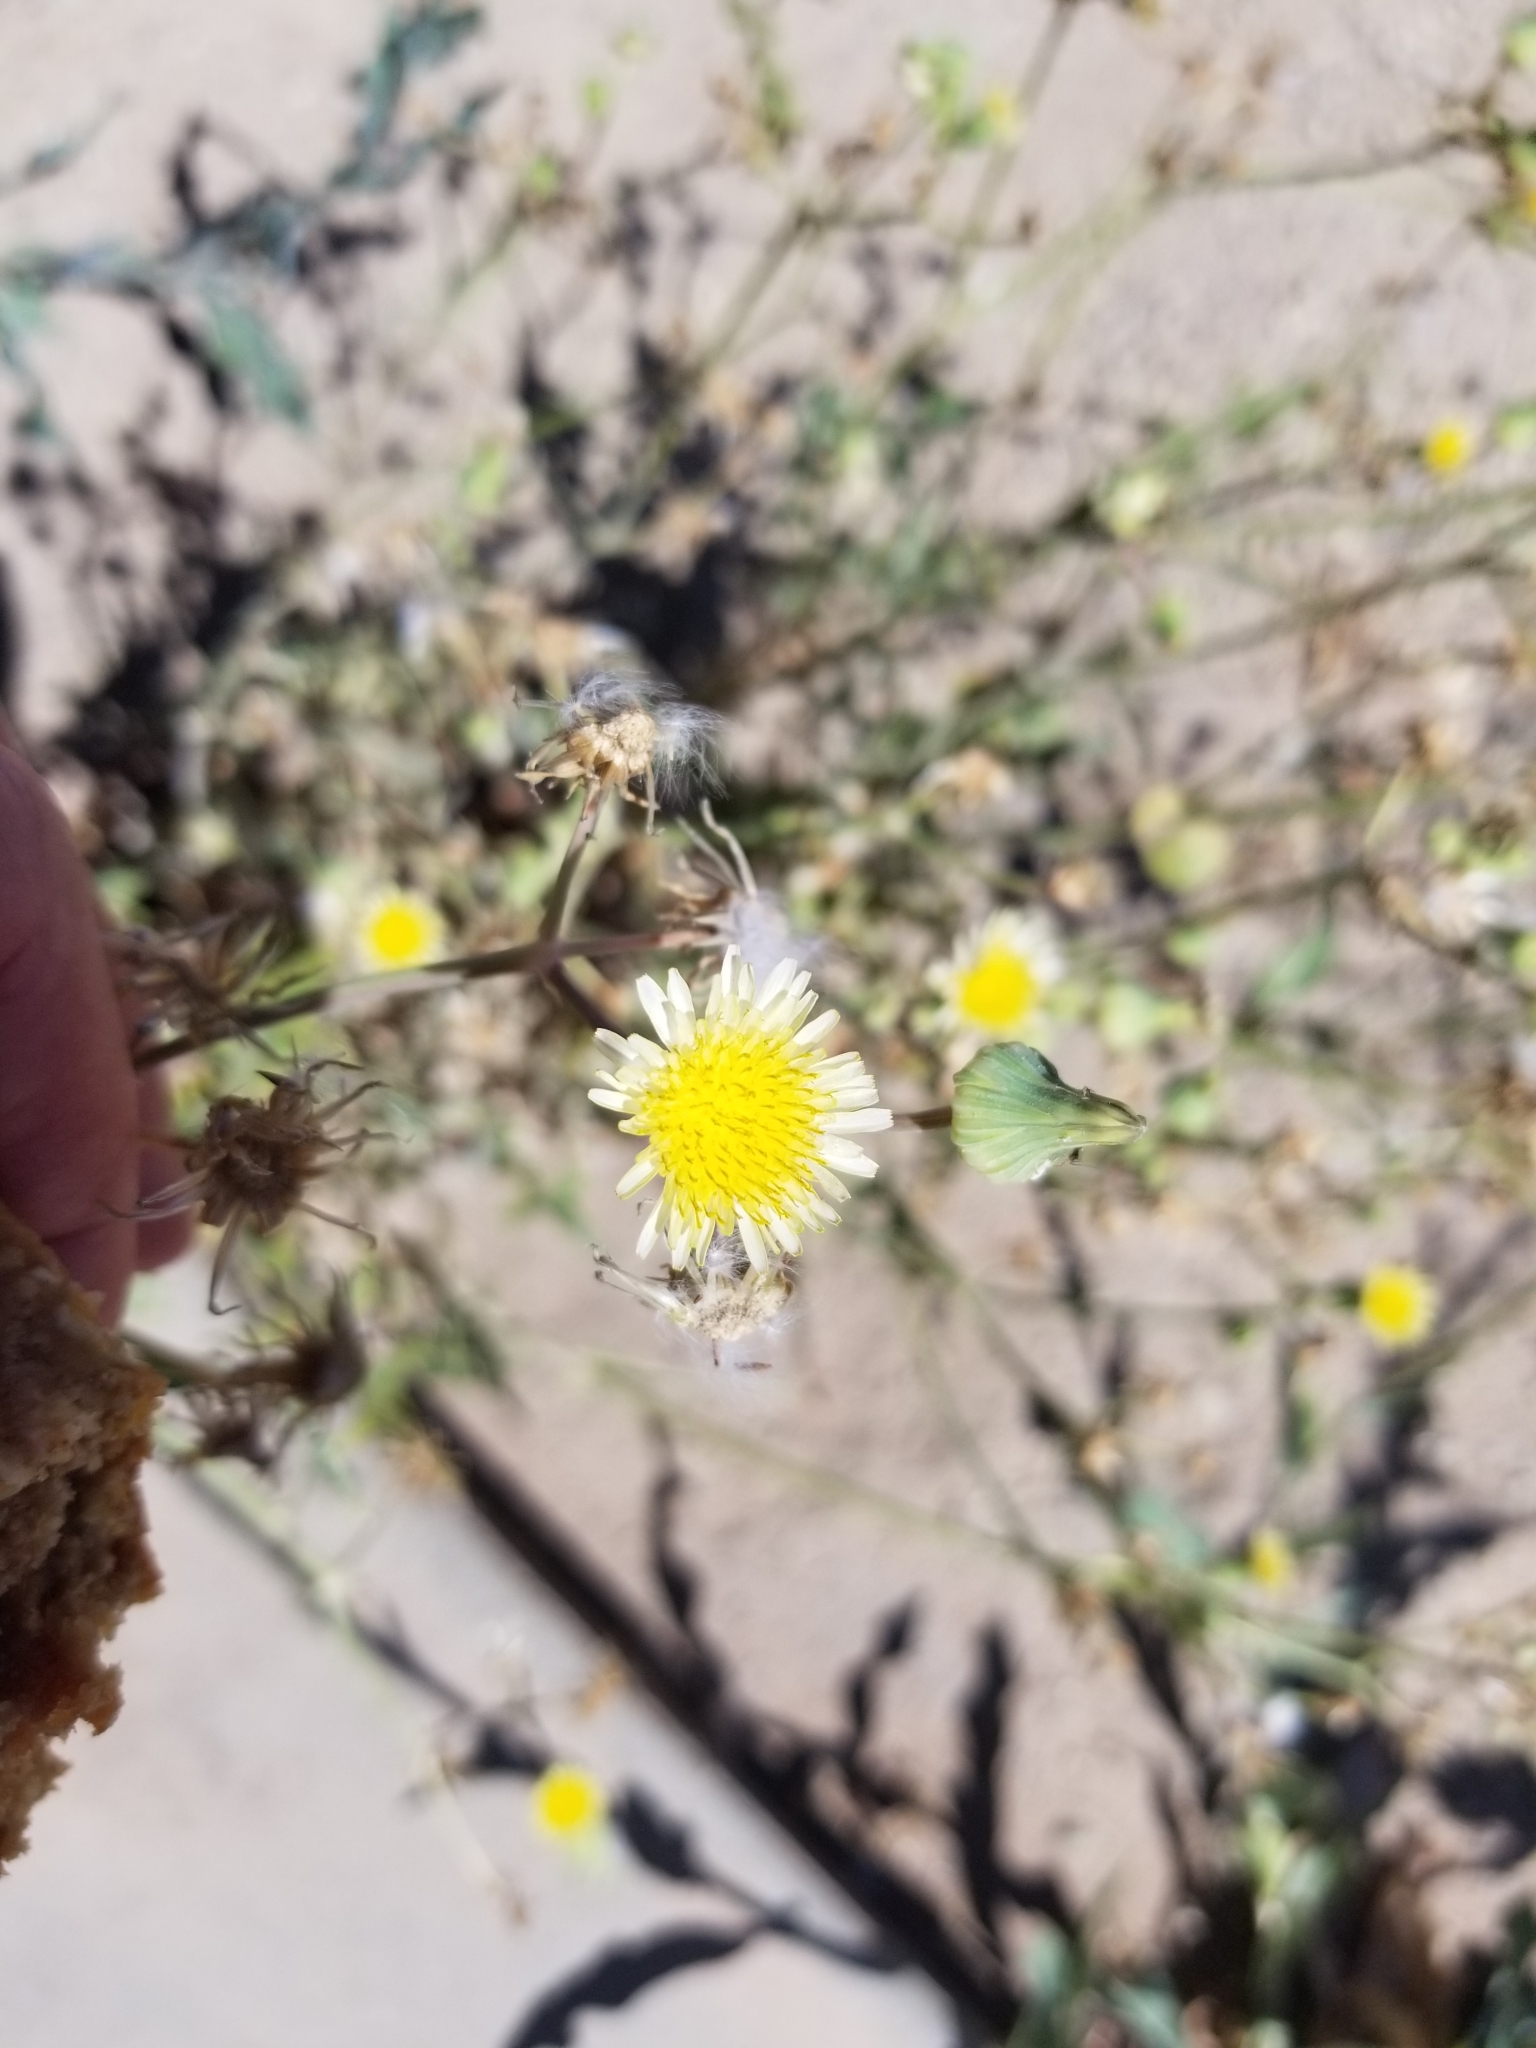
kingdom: Plantae
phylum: Tracheophyta
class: Magnoliopsida
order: Asterales
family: Asteraceae
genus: Sonchus
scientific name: Sonchus oleraceus
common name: Common sowthistle
